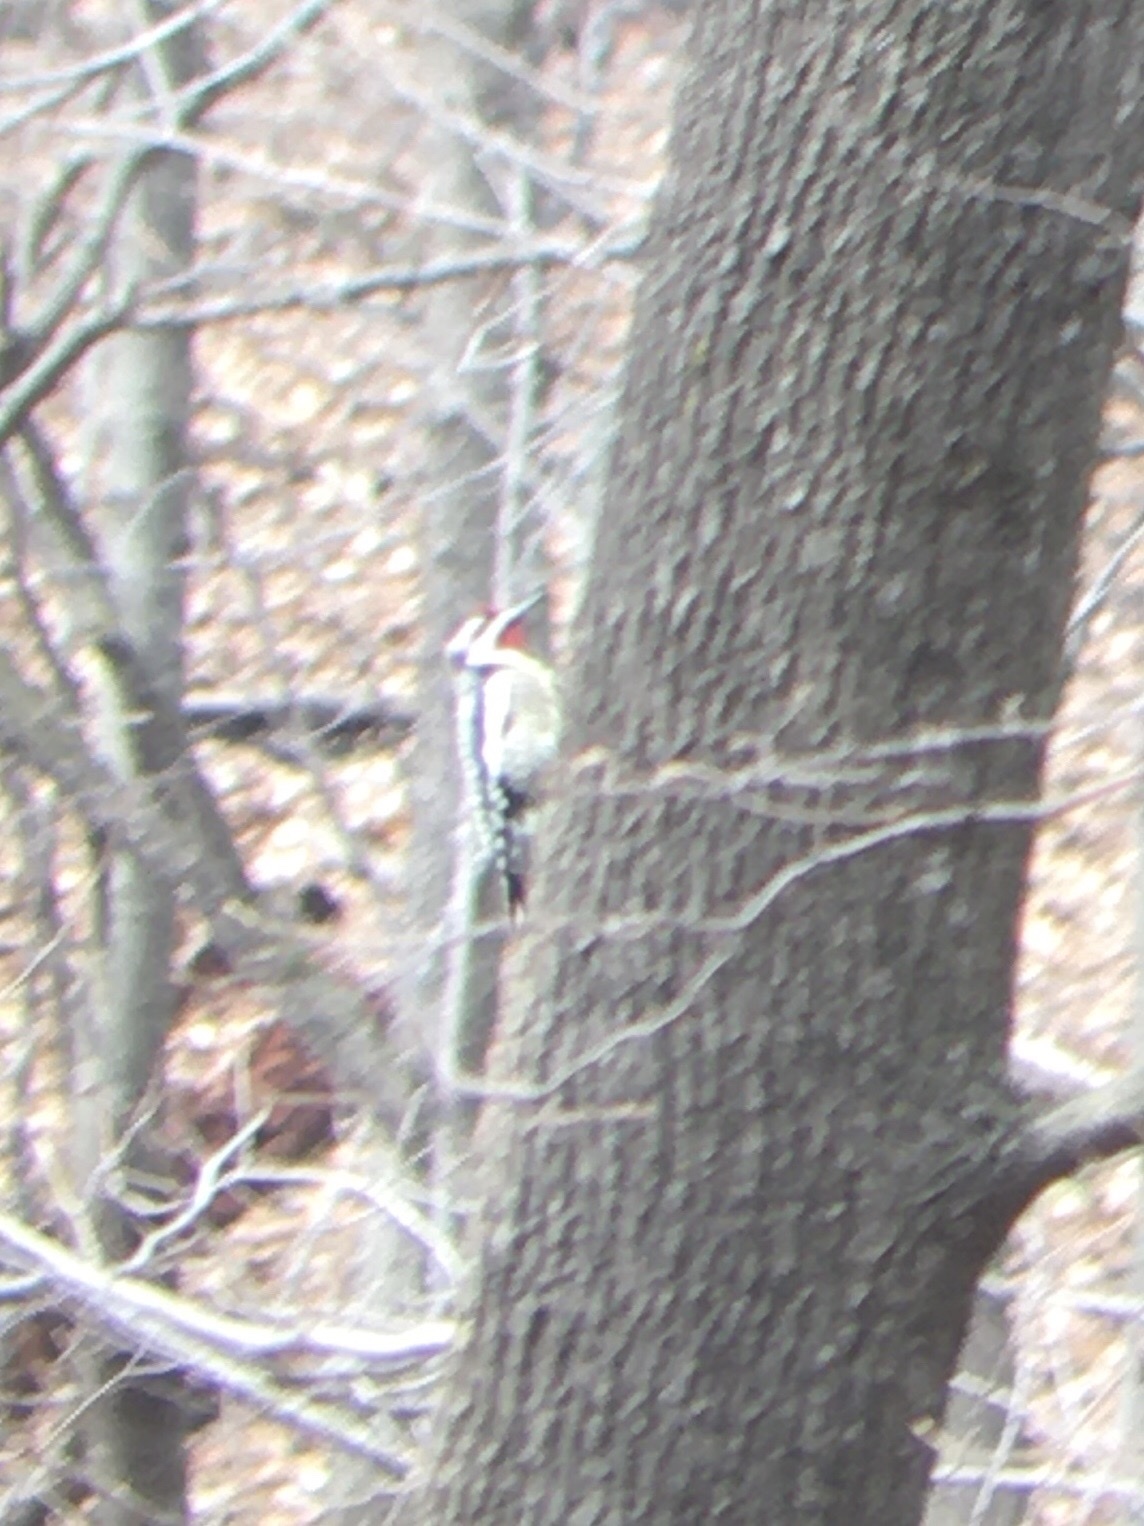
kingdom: Animalia
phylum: Chordata
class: Aves
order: Piciformes
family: Picidae
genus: Sphyrapicus
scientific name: Sphyrapicus varius
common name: Yellow-bellied sapsucker
